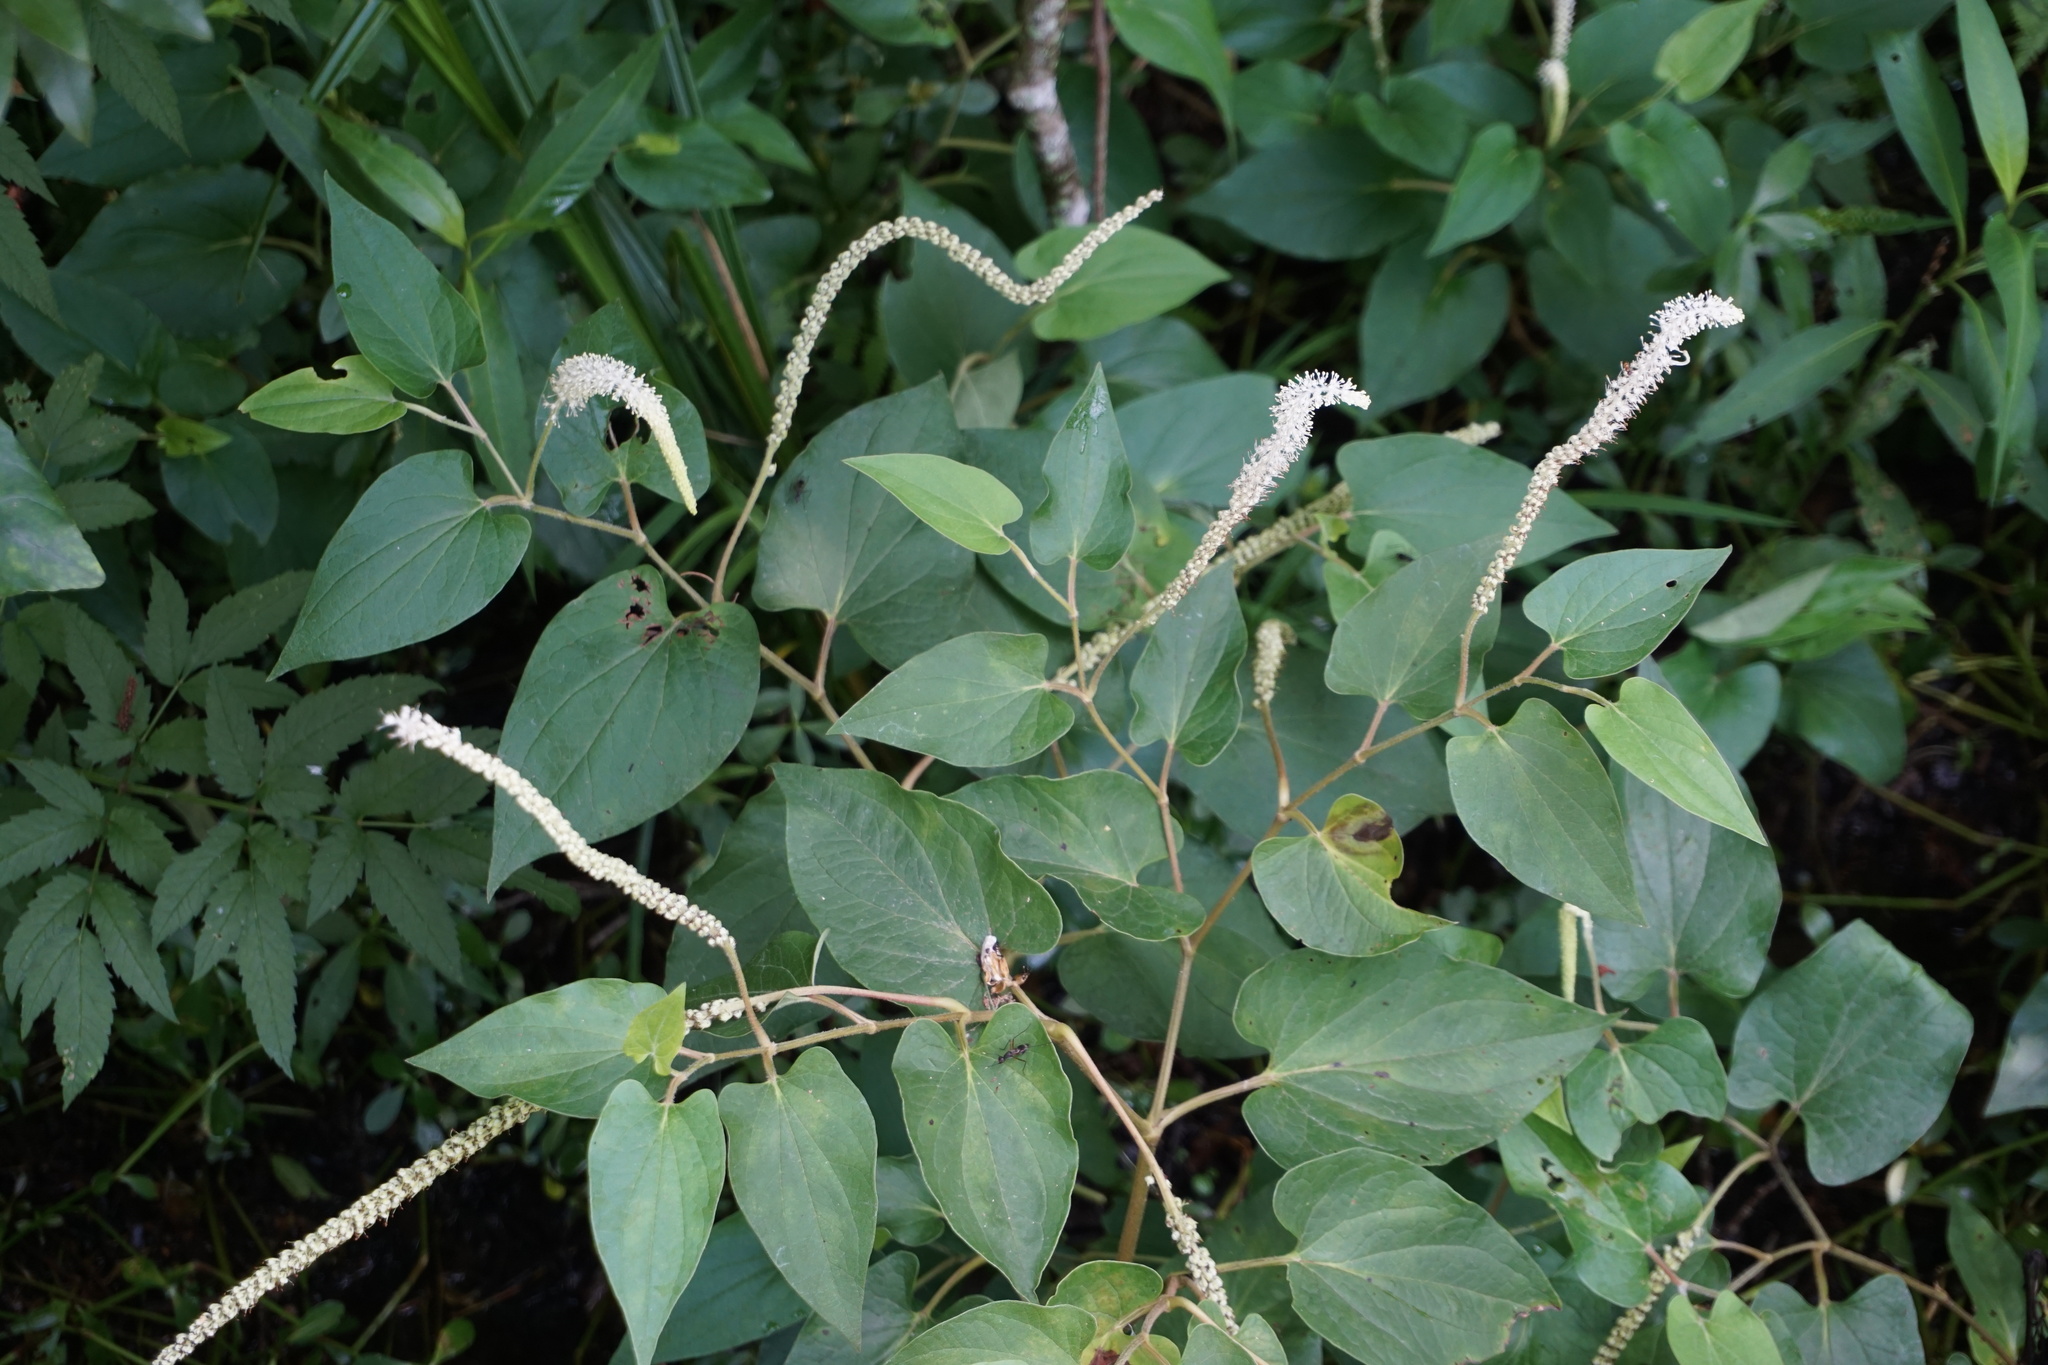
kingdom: Plantae
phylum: Tracheophyta
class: Magnoliopsida
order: Piperales
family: Saururaceae
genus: Saururus
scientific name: Saururus cernuus
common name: Lizard's-tail
